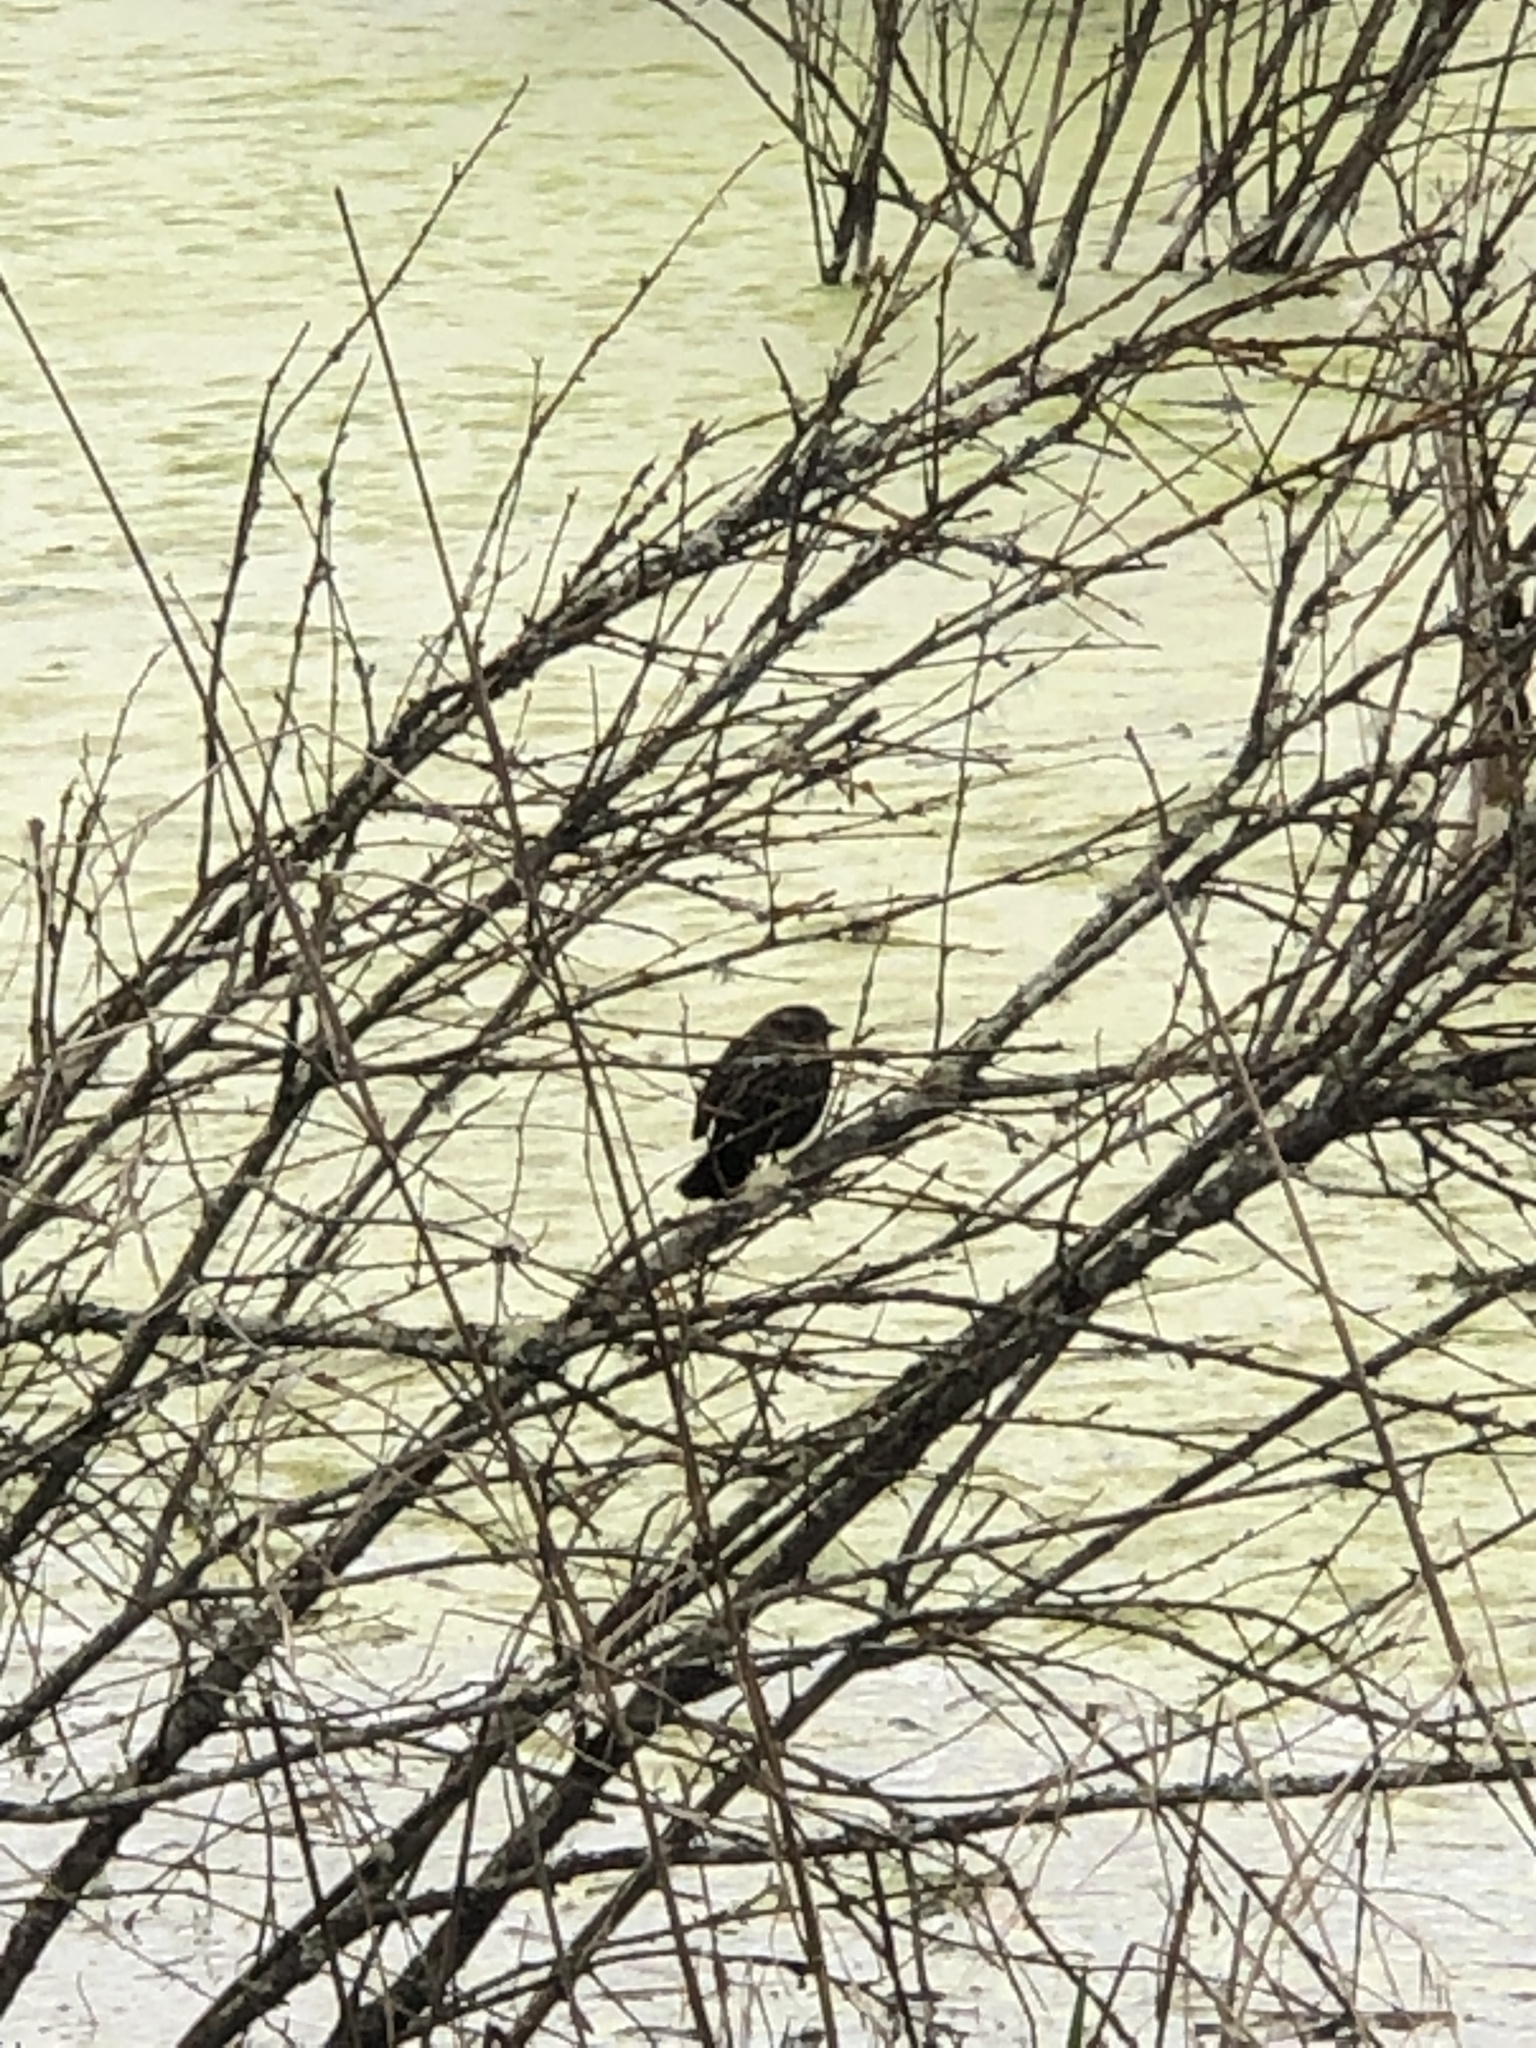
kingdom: Animalia
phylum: Chordata
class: Aves
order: Passeriformes
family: Icteridae
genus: Agelaius
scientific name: Agelaius phoeniceus
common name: Red-winged blackbird
